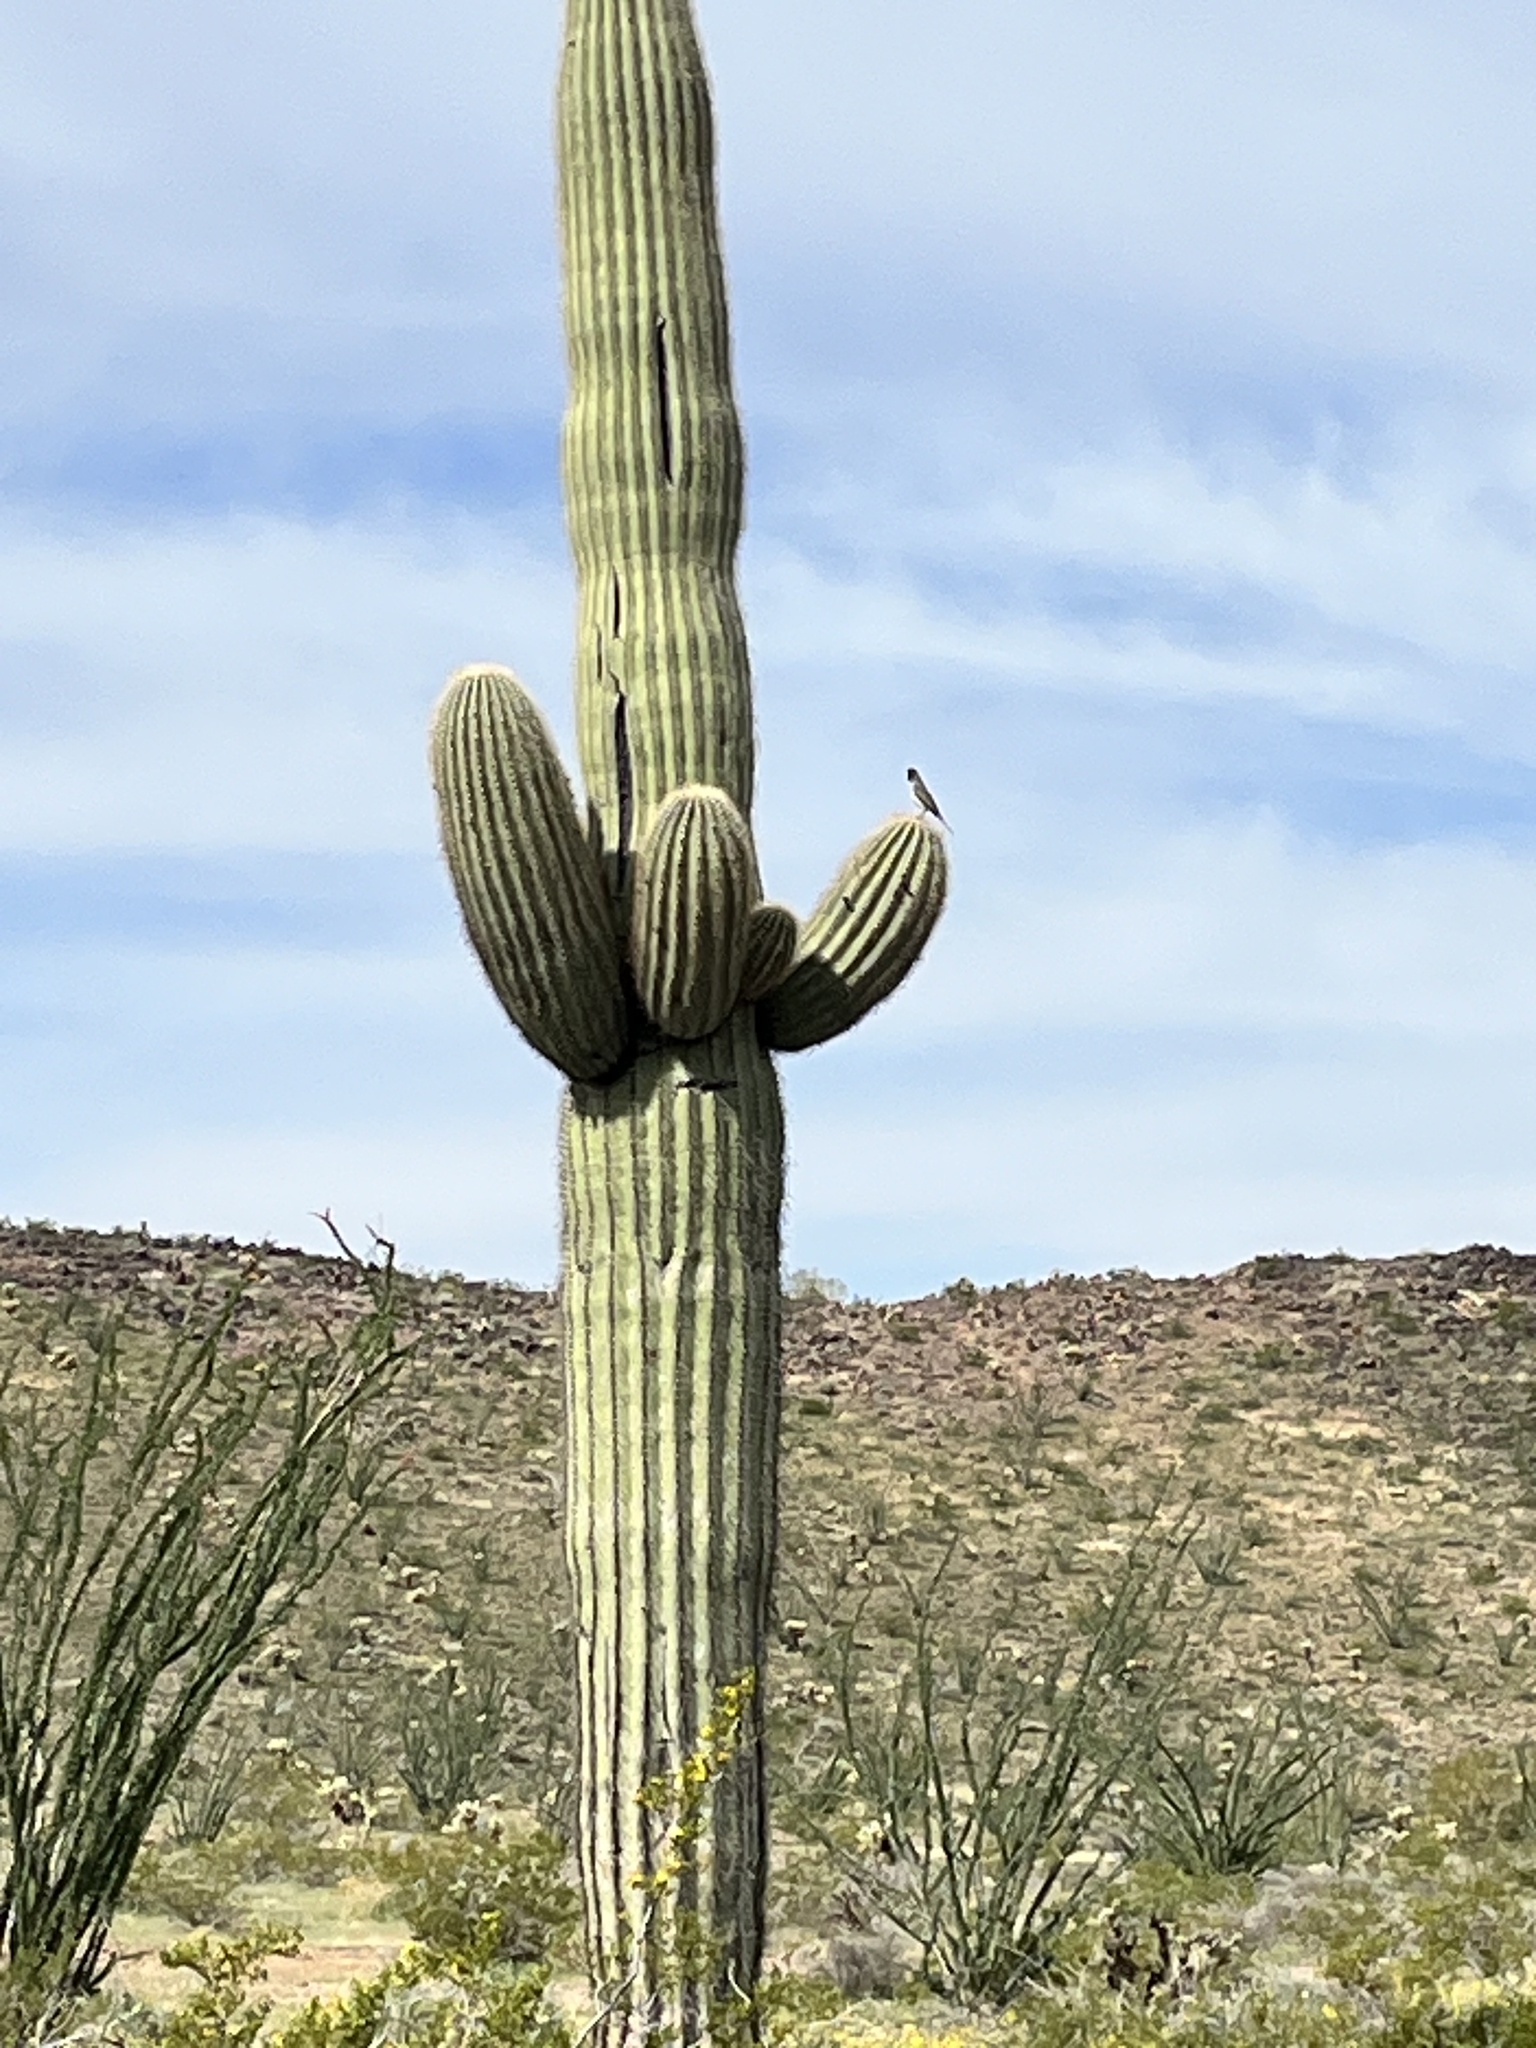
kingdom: Animalia
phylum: Chordata
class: Aves
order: Passeriformes
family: Tyrannidae
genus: Myiarchus
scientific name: Myiarchus cinerascens
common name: Ash-throated flycatcher
